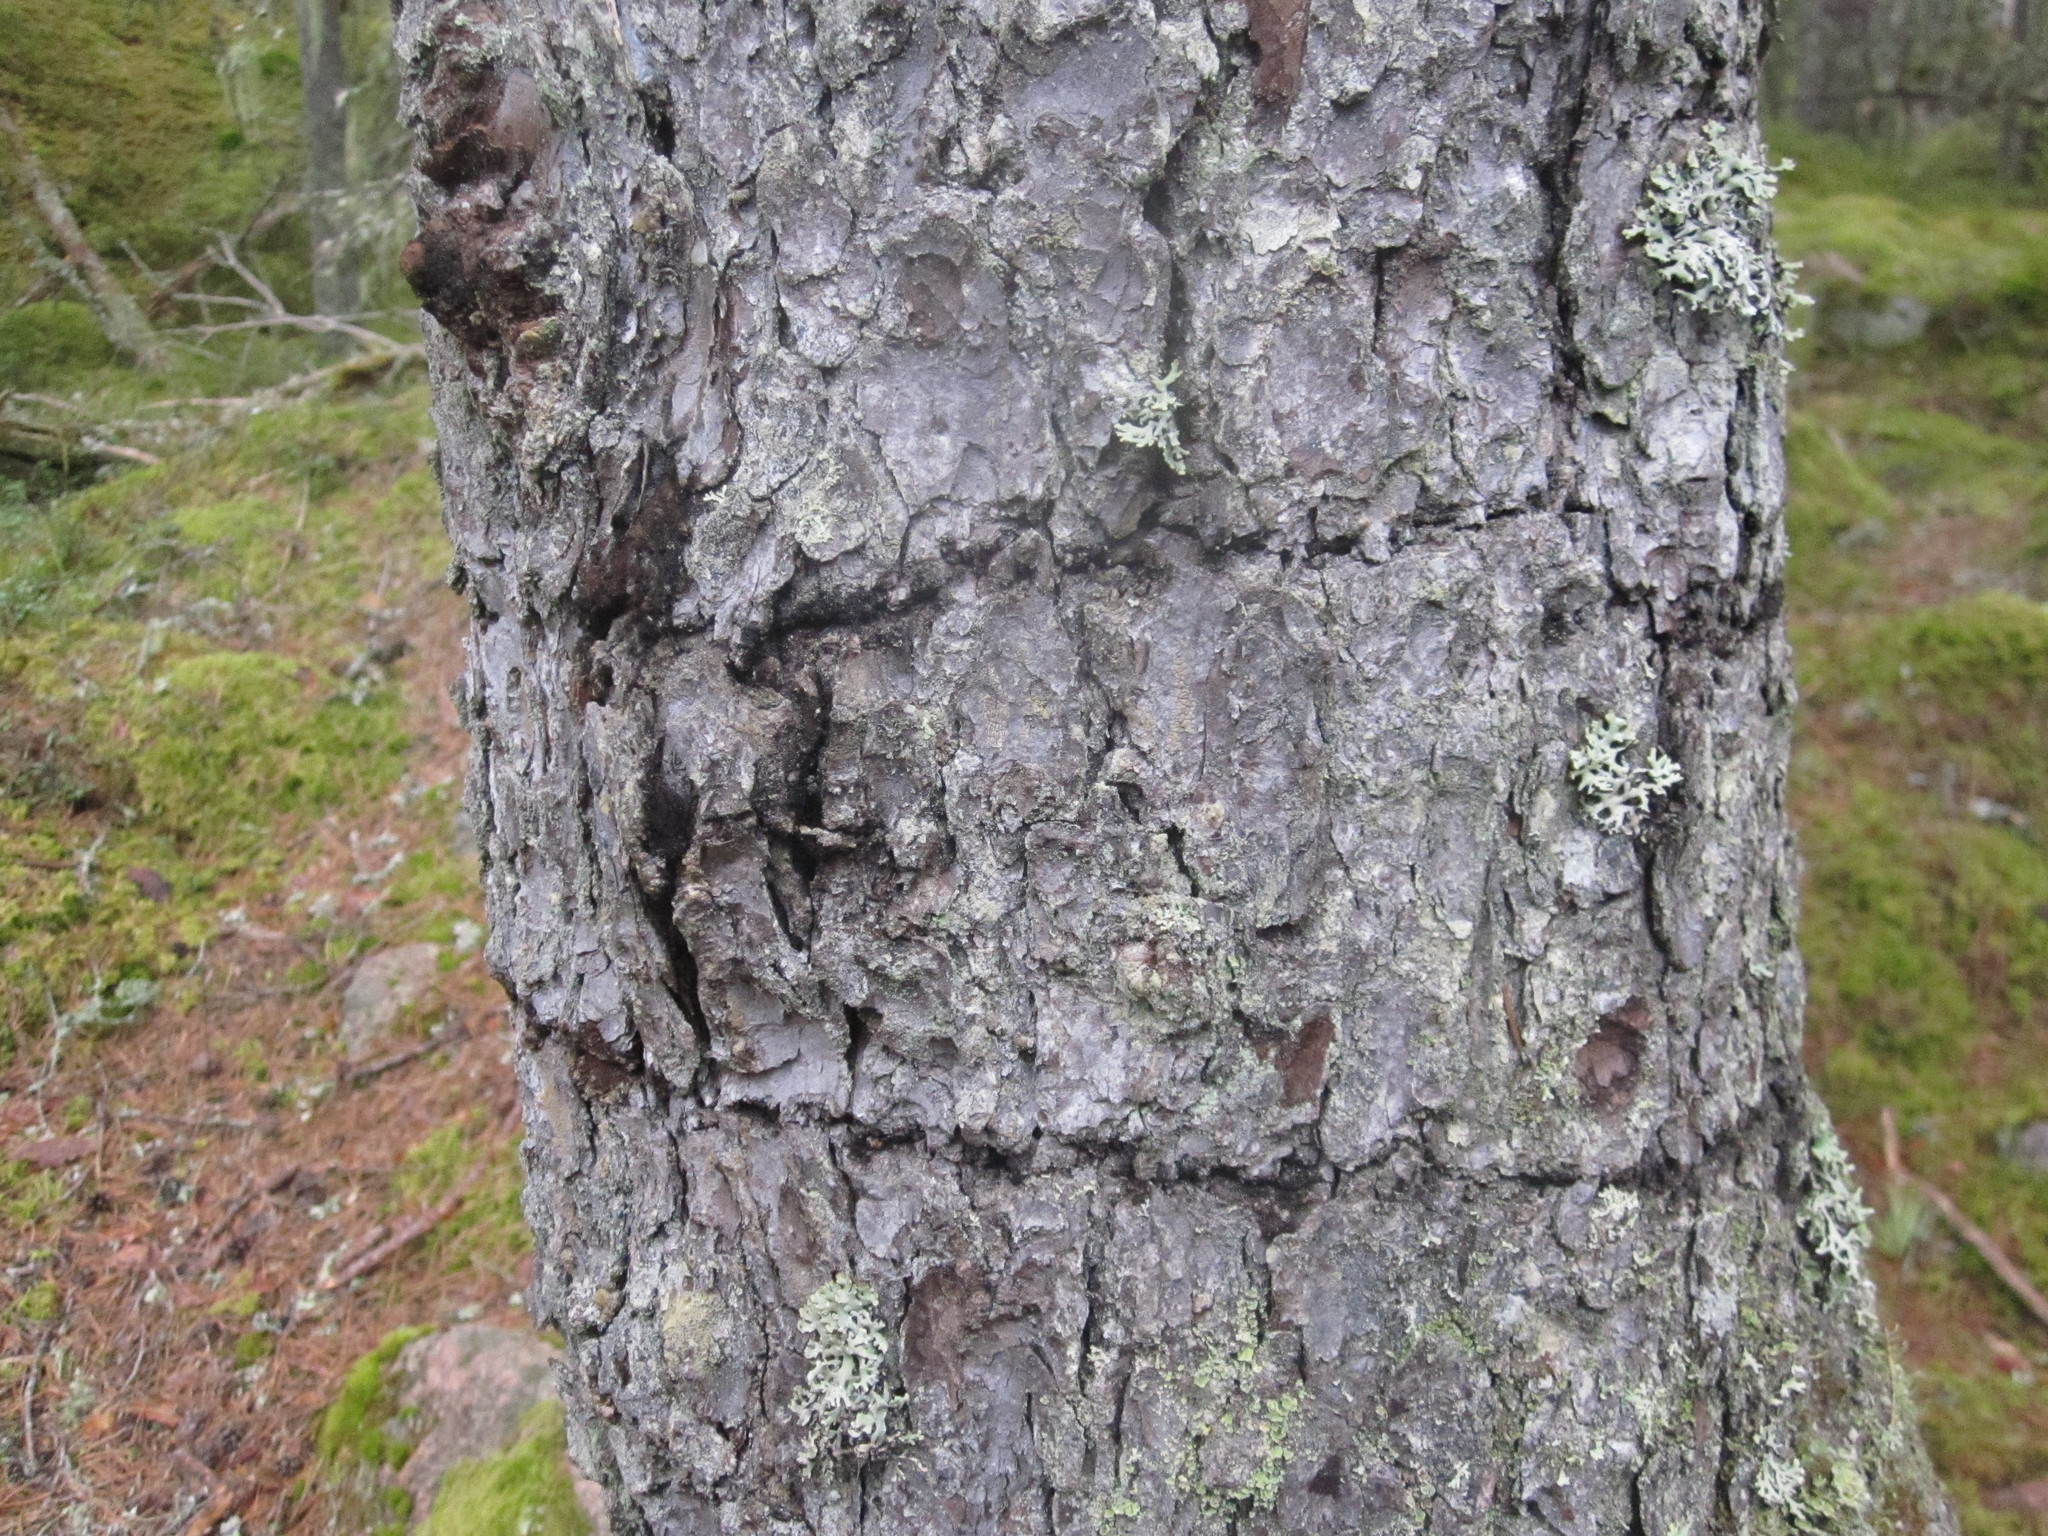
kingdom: Animalia
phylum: Chordata
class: Aves
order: Piciformes
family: Picidae
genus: Picoides
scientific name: Picoides tridactylus
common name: Eurasian three-toed woodpecker
